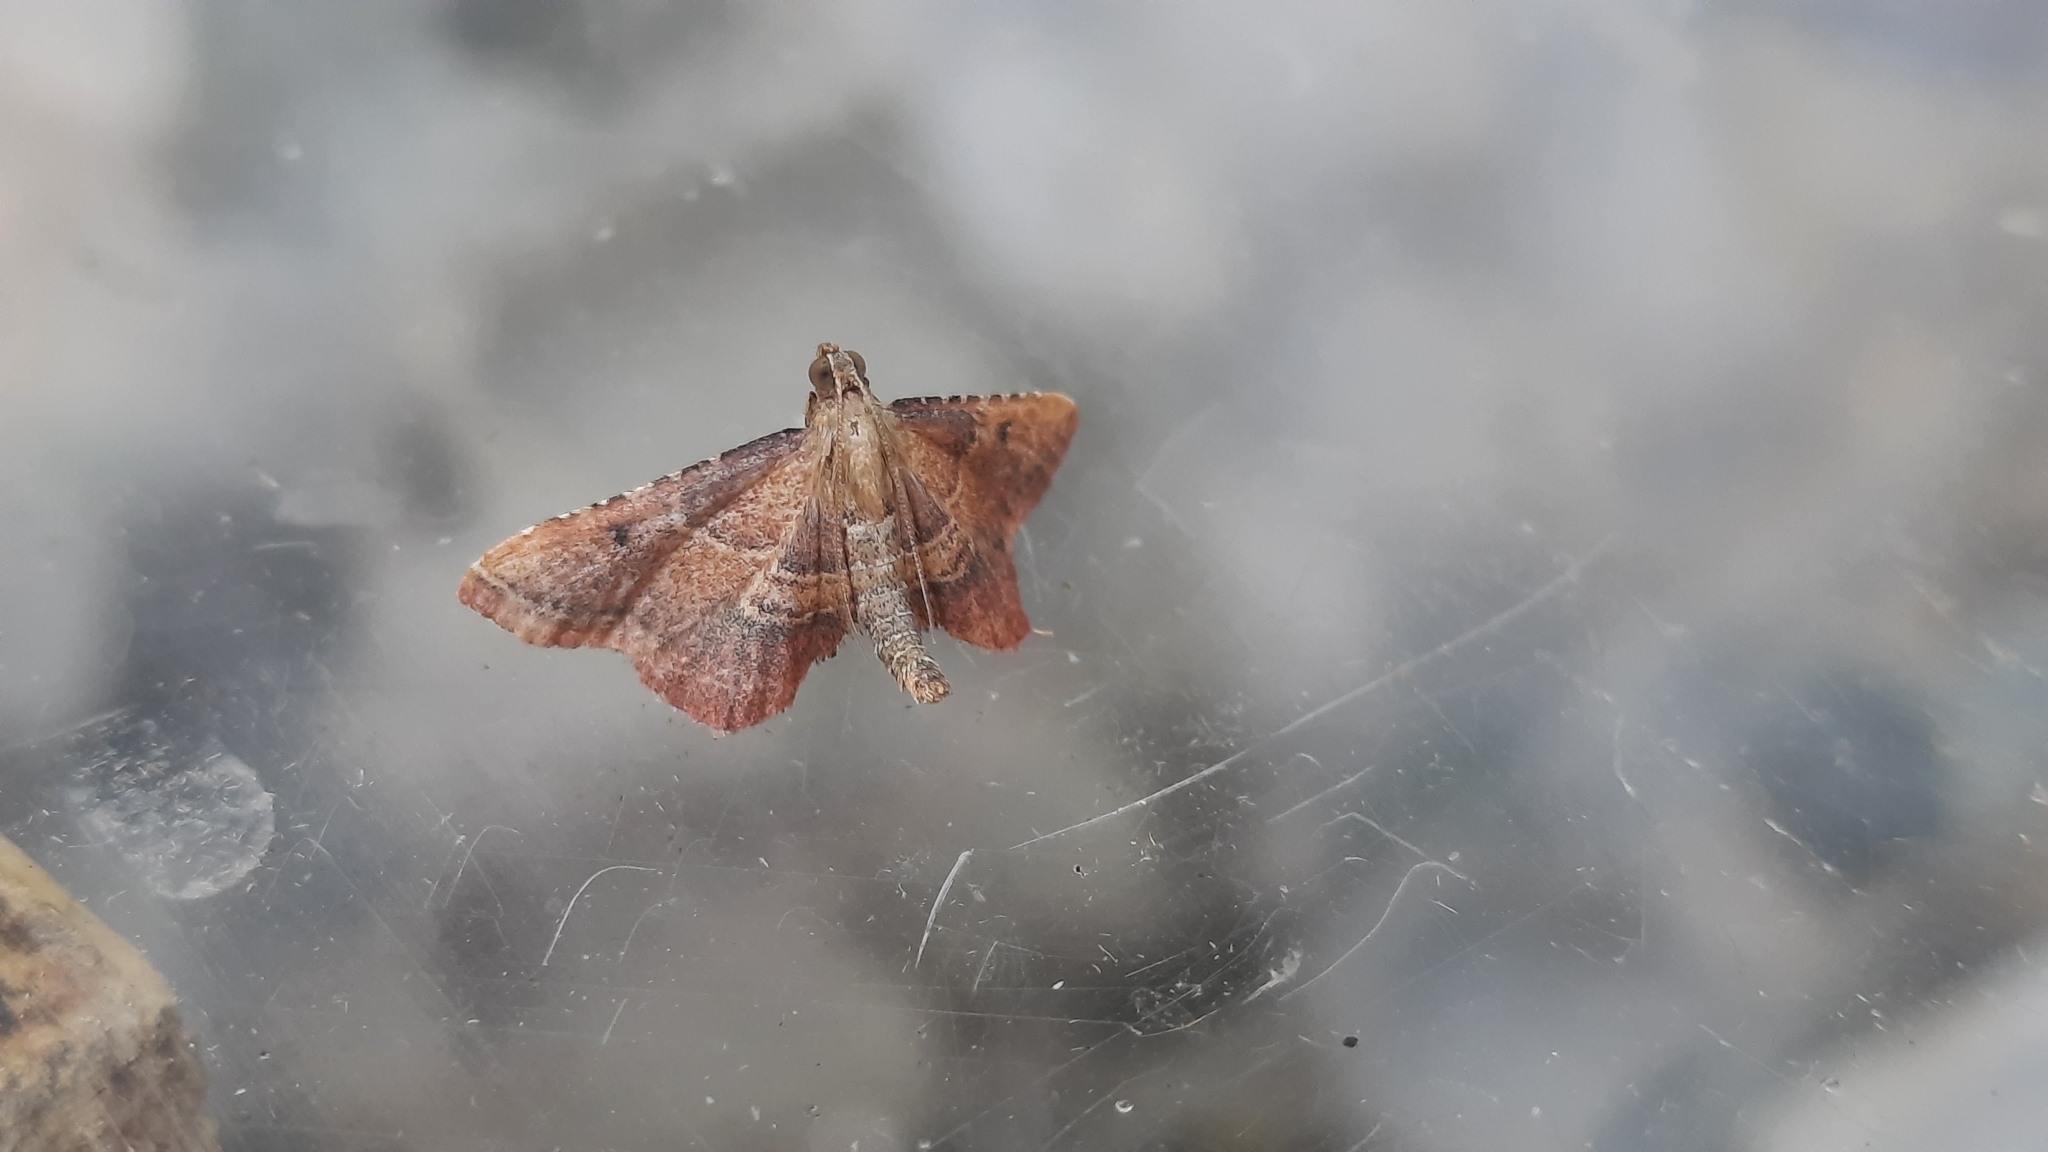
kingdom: Animalia
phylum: Arthropoda
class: Insecta
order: Lepidoptera
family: Pyralidae
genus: Endotricha
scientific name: Endotricha flammealis
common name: Rosy tabby
